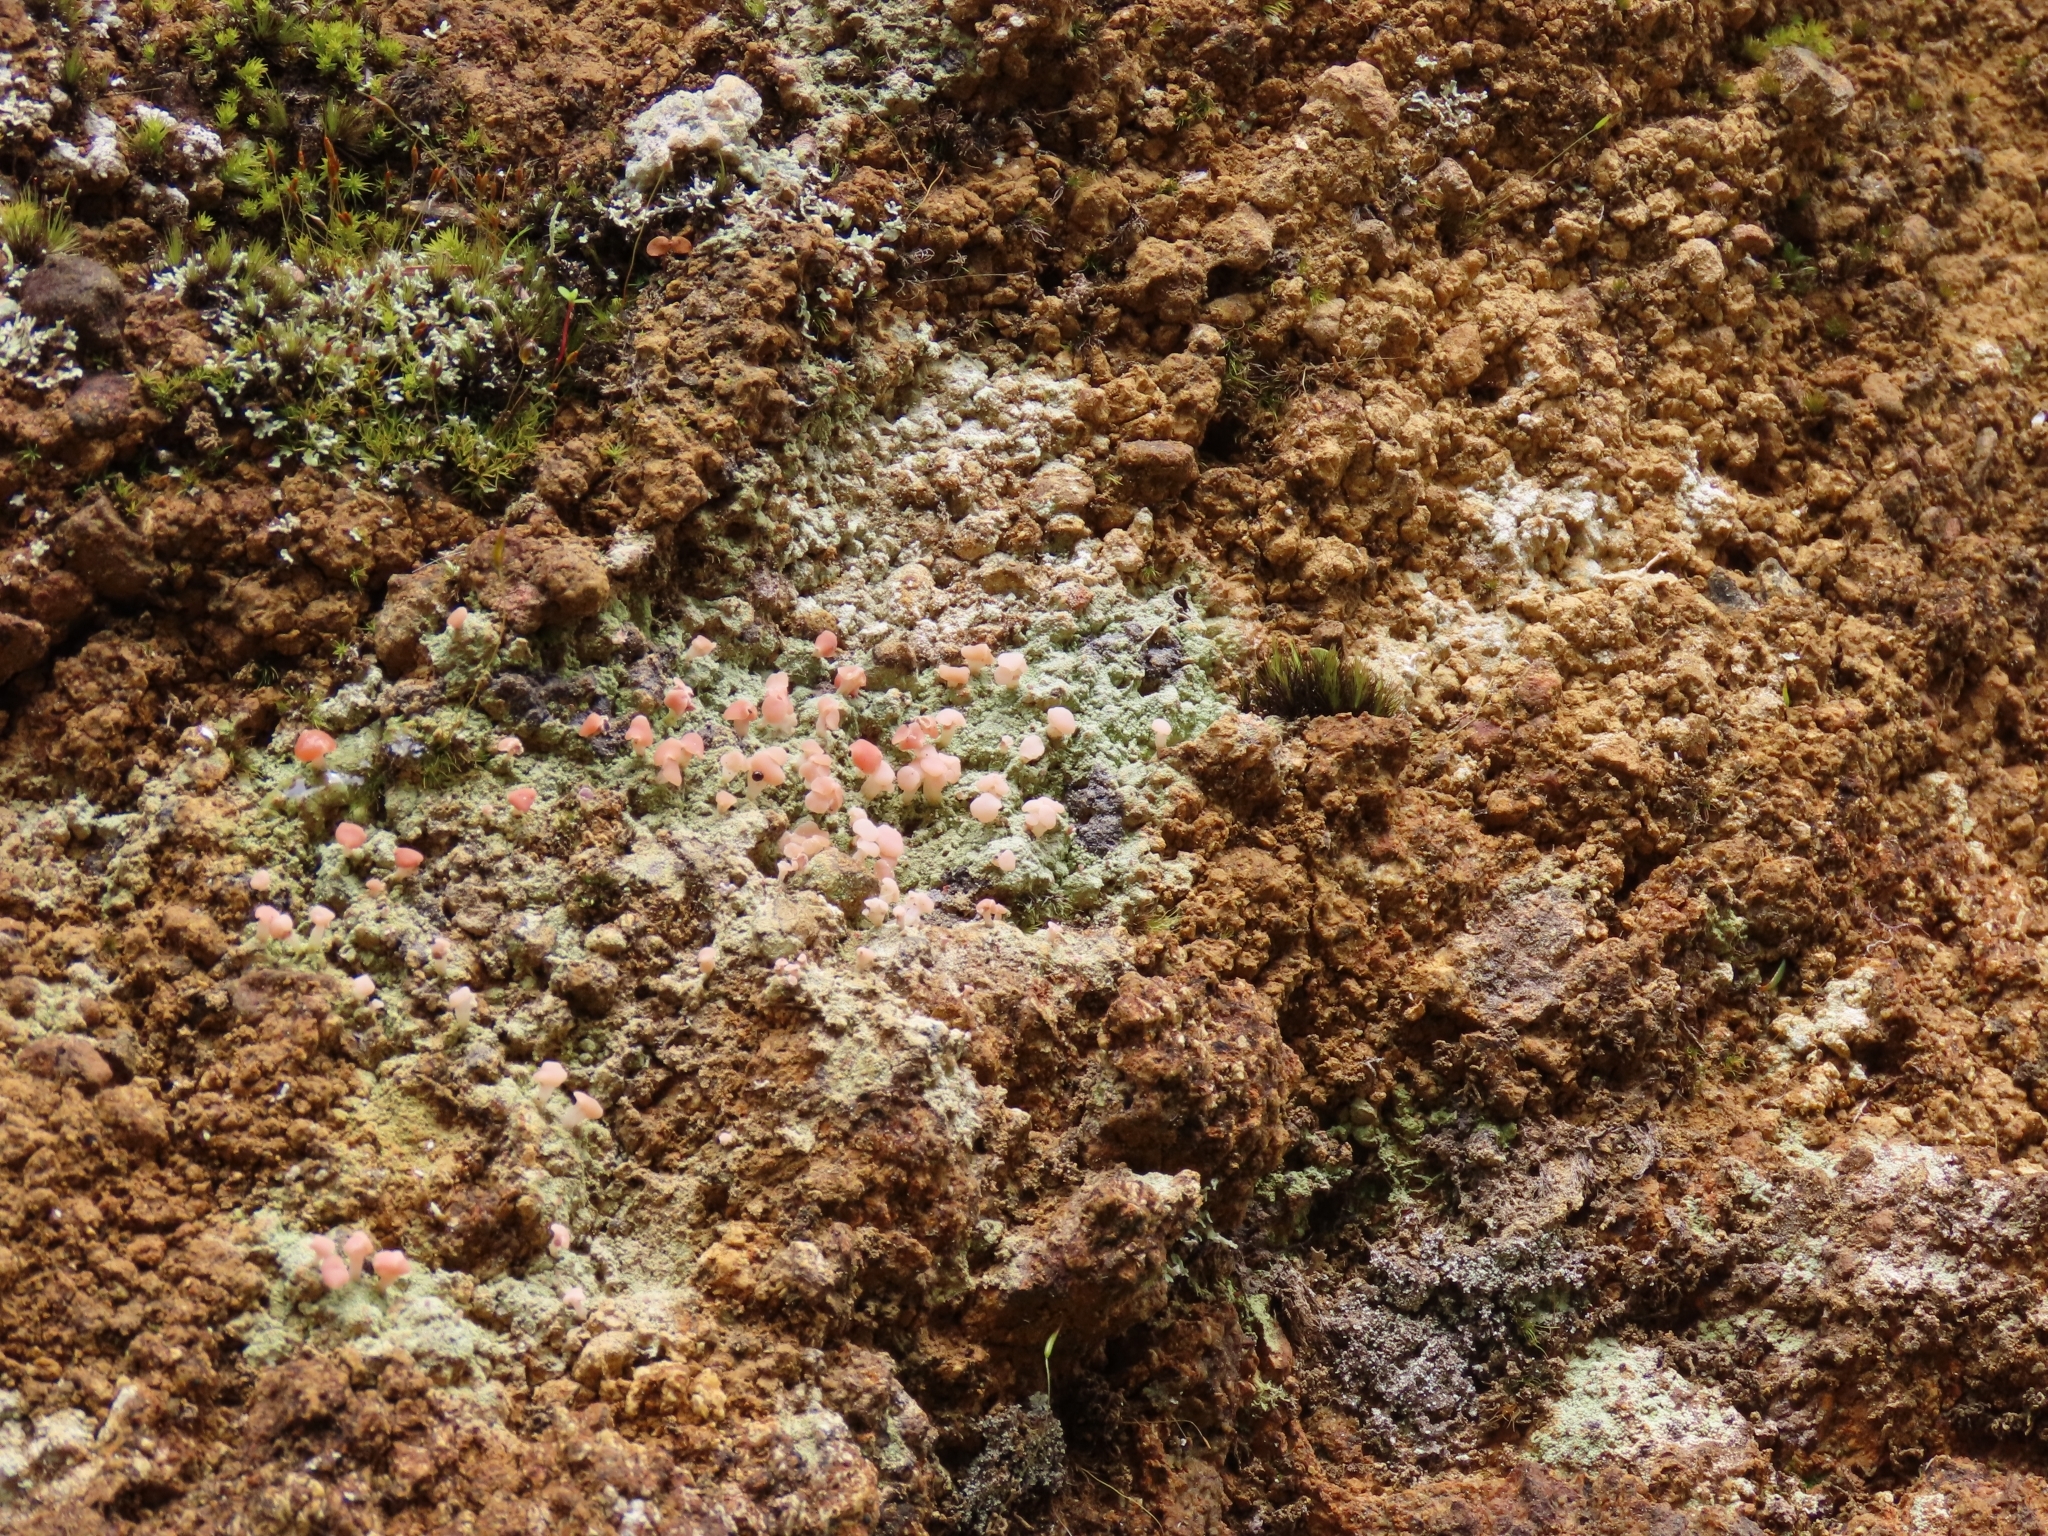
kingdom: Fungi
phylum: Ascomycota
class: Lecanoromycetes
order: Baeomycetales
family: Baeomycetaceae
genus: Baeomyces
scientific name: Baeomyces heteromorphus
